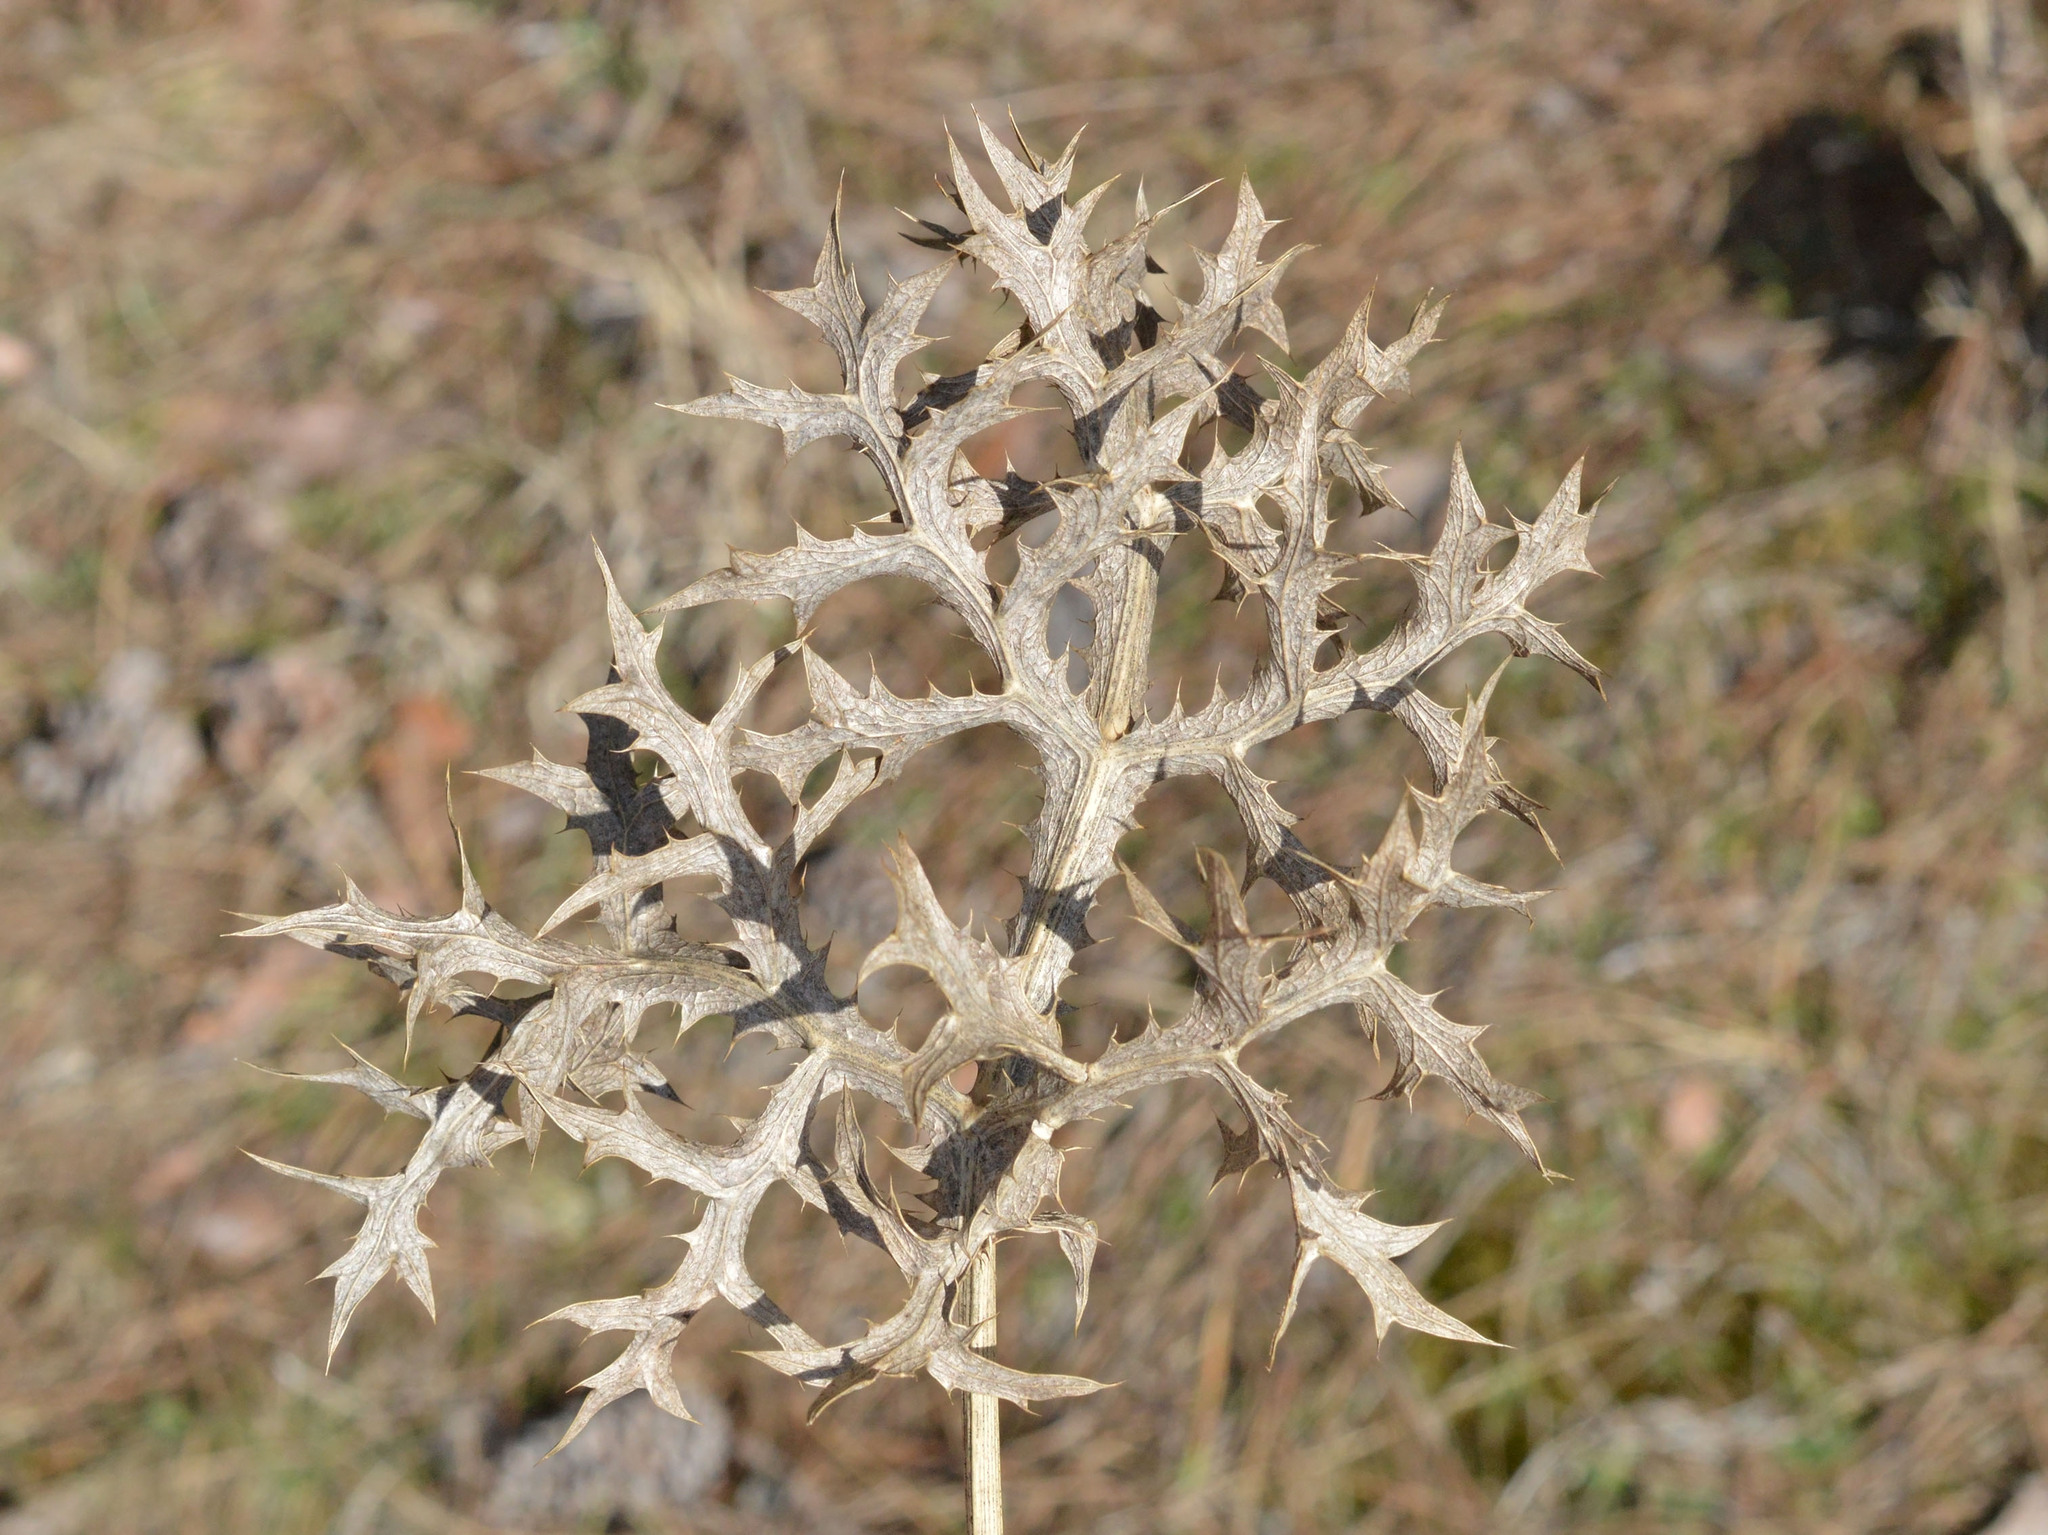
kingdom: Plantae
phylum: Tracheophyta
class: Magnoliopsida
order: Apiales
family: Apiaceae
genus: Eryngium
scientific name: Eryngium campestre
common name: Field eryngo
